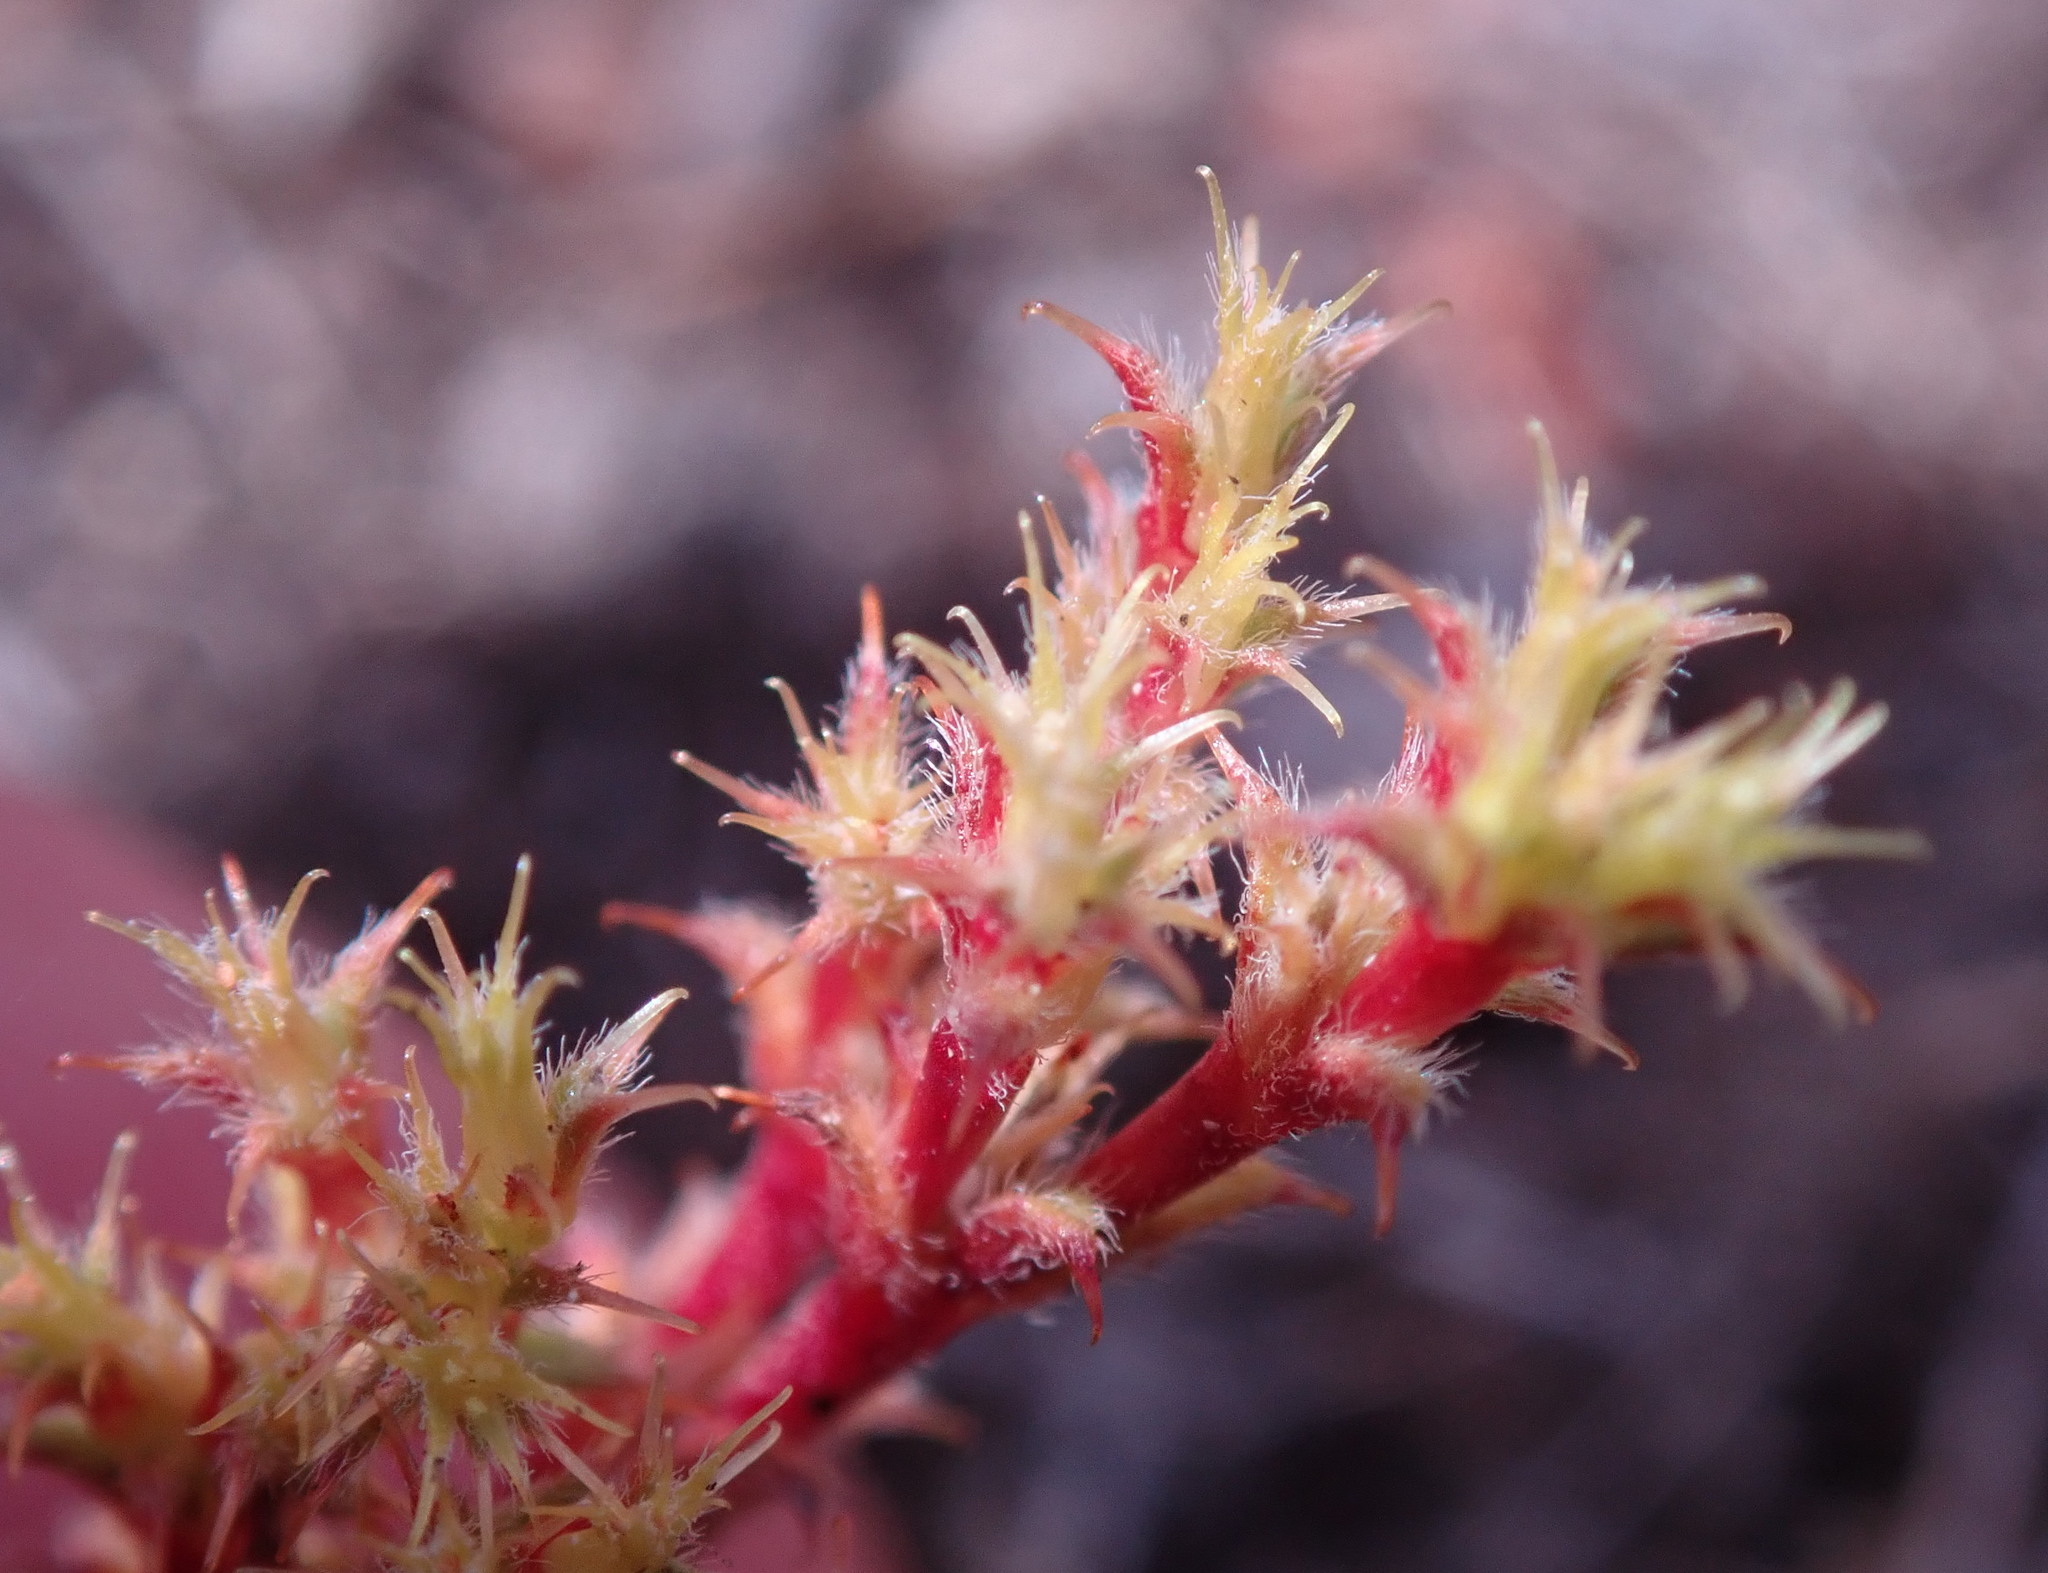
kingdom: Plantae
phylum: Tracheophyta
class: Magnoliopsida
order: Caryophyllales
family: Polygonaceae
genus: Lastarriaea
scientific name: Lastarriaea coriacea
